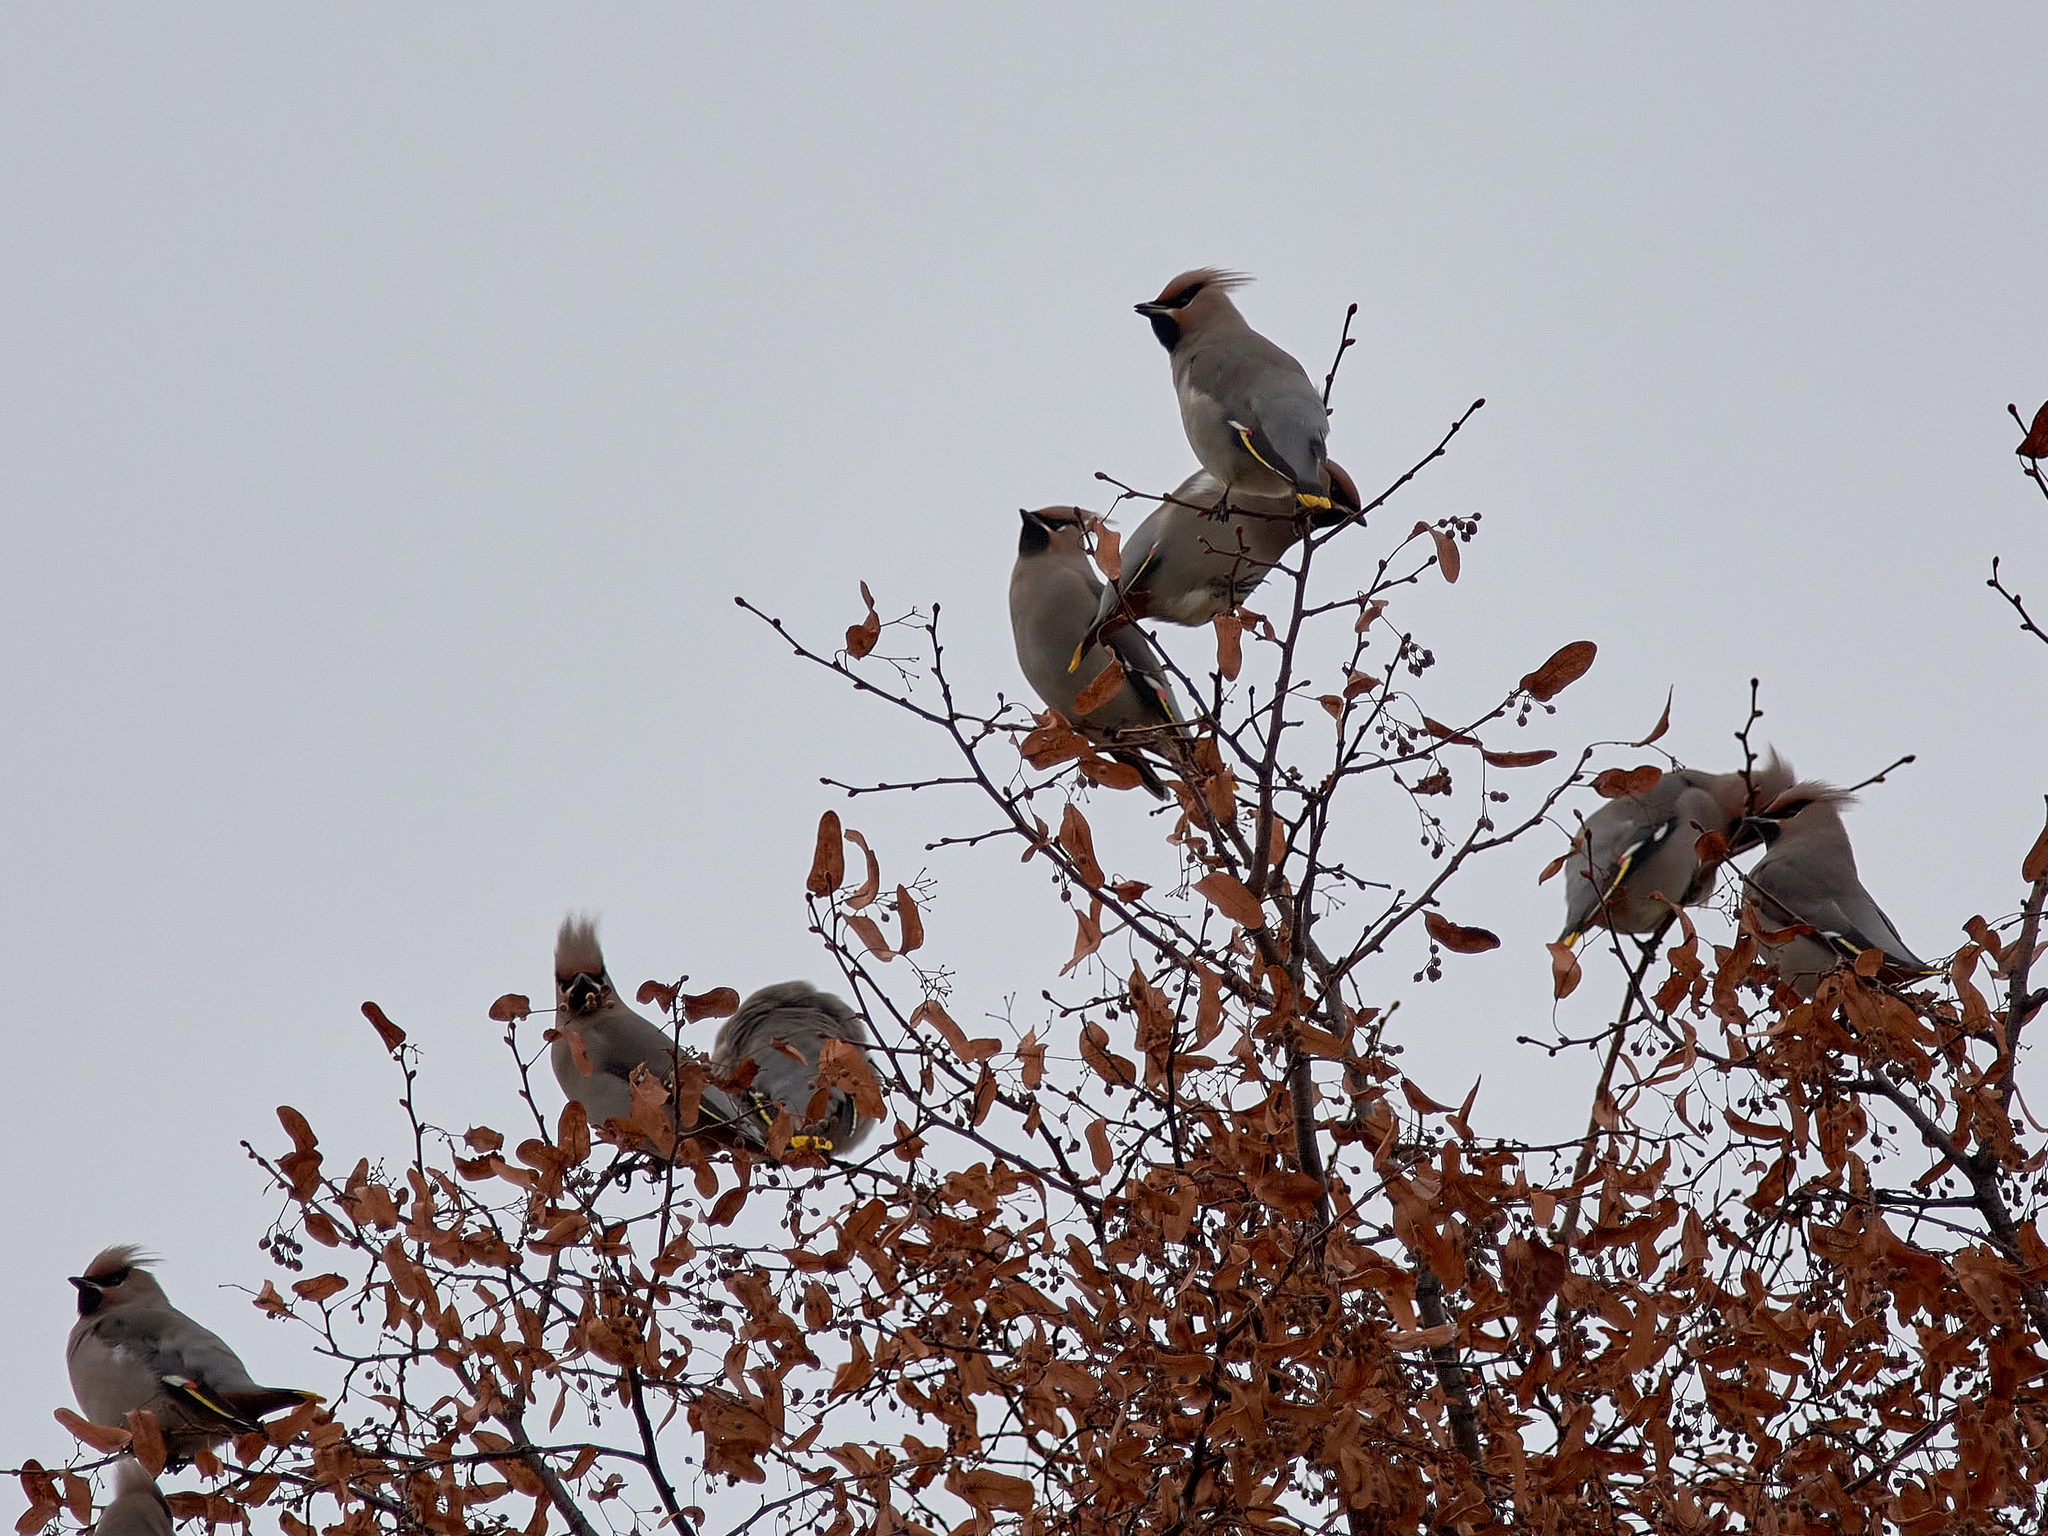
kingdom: Animalia
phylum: Chordata
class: Aves
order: Passeriformes
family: Bombycillidae
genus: Bombycilla
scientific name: Bombycilla garrulus
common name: Bohemian waxwing
